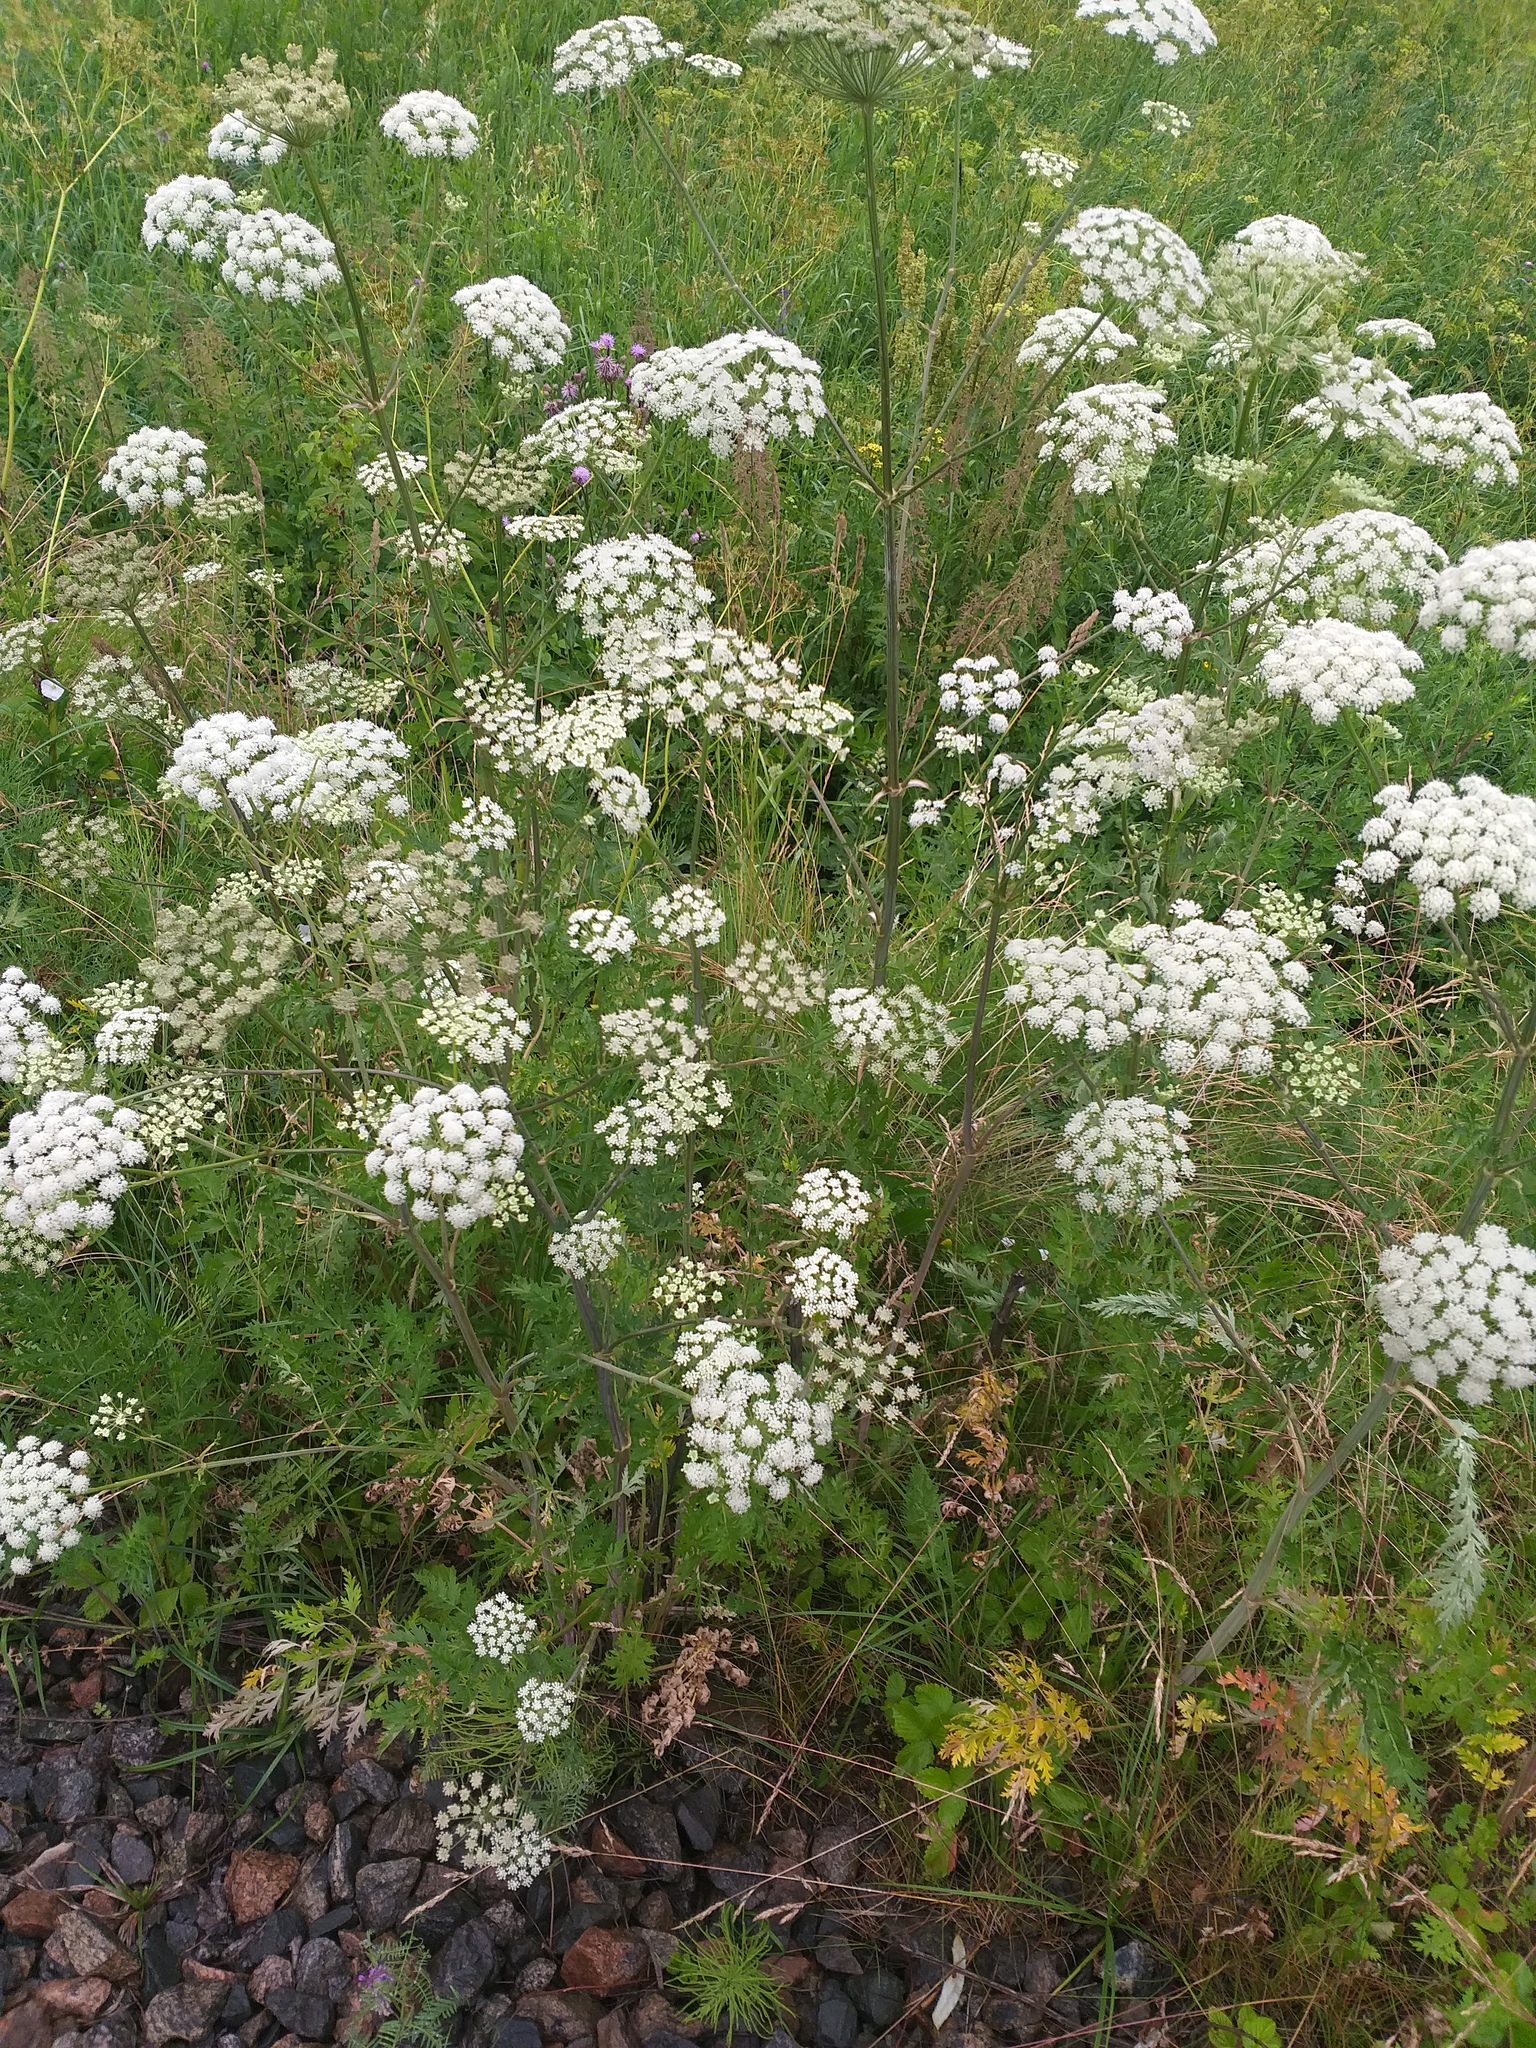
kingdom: Plantae
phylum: Tracheophyta
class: Magnoliopsida
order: Apiales
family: Apiaceae
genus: Seseli
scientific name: Seseli libanotis
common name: Mooncarrot
